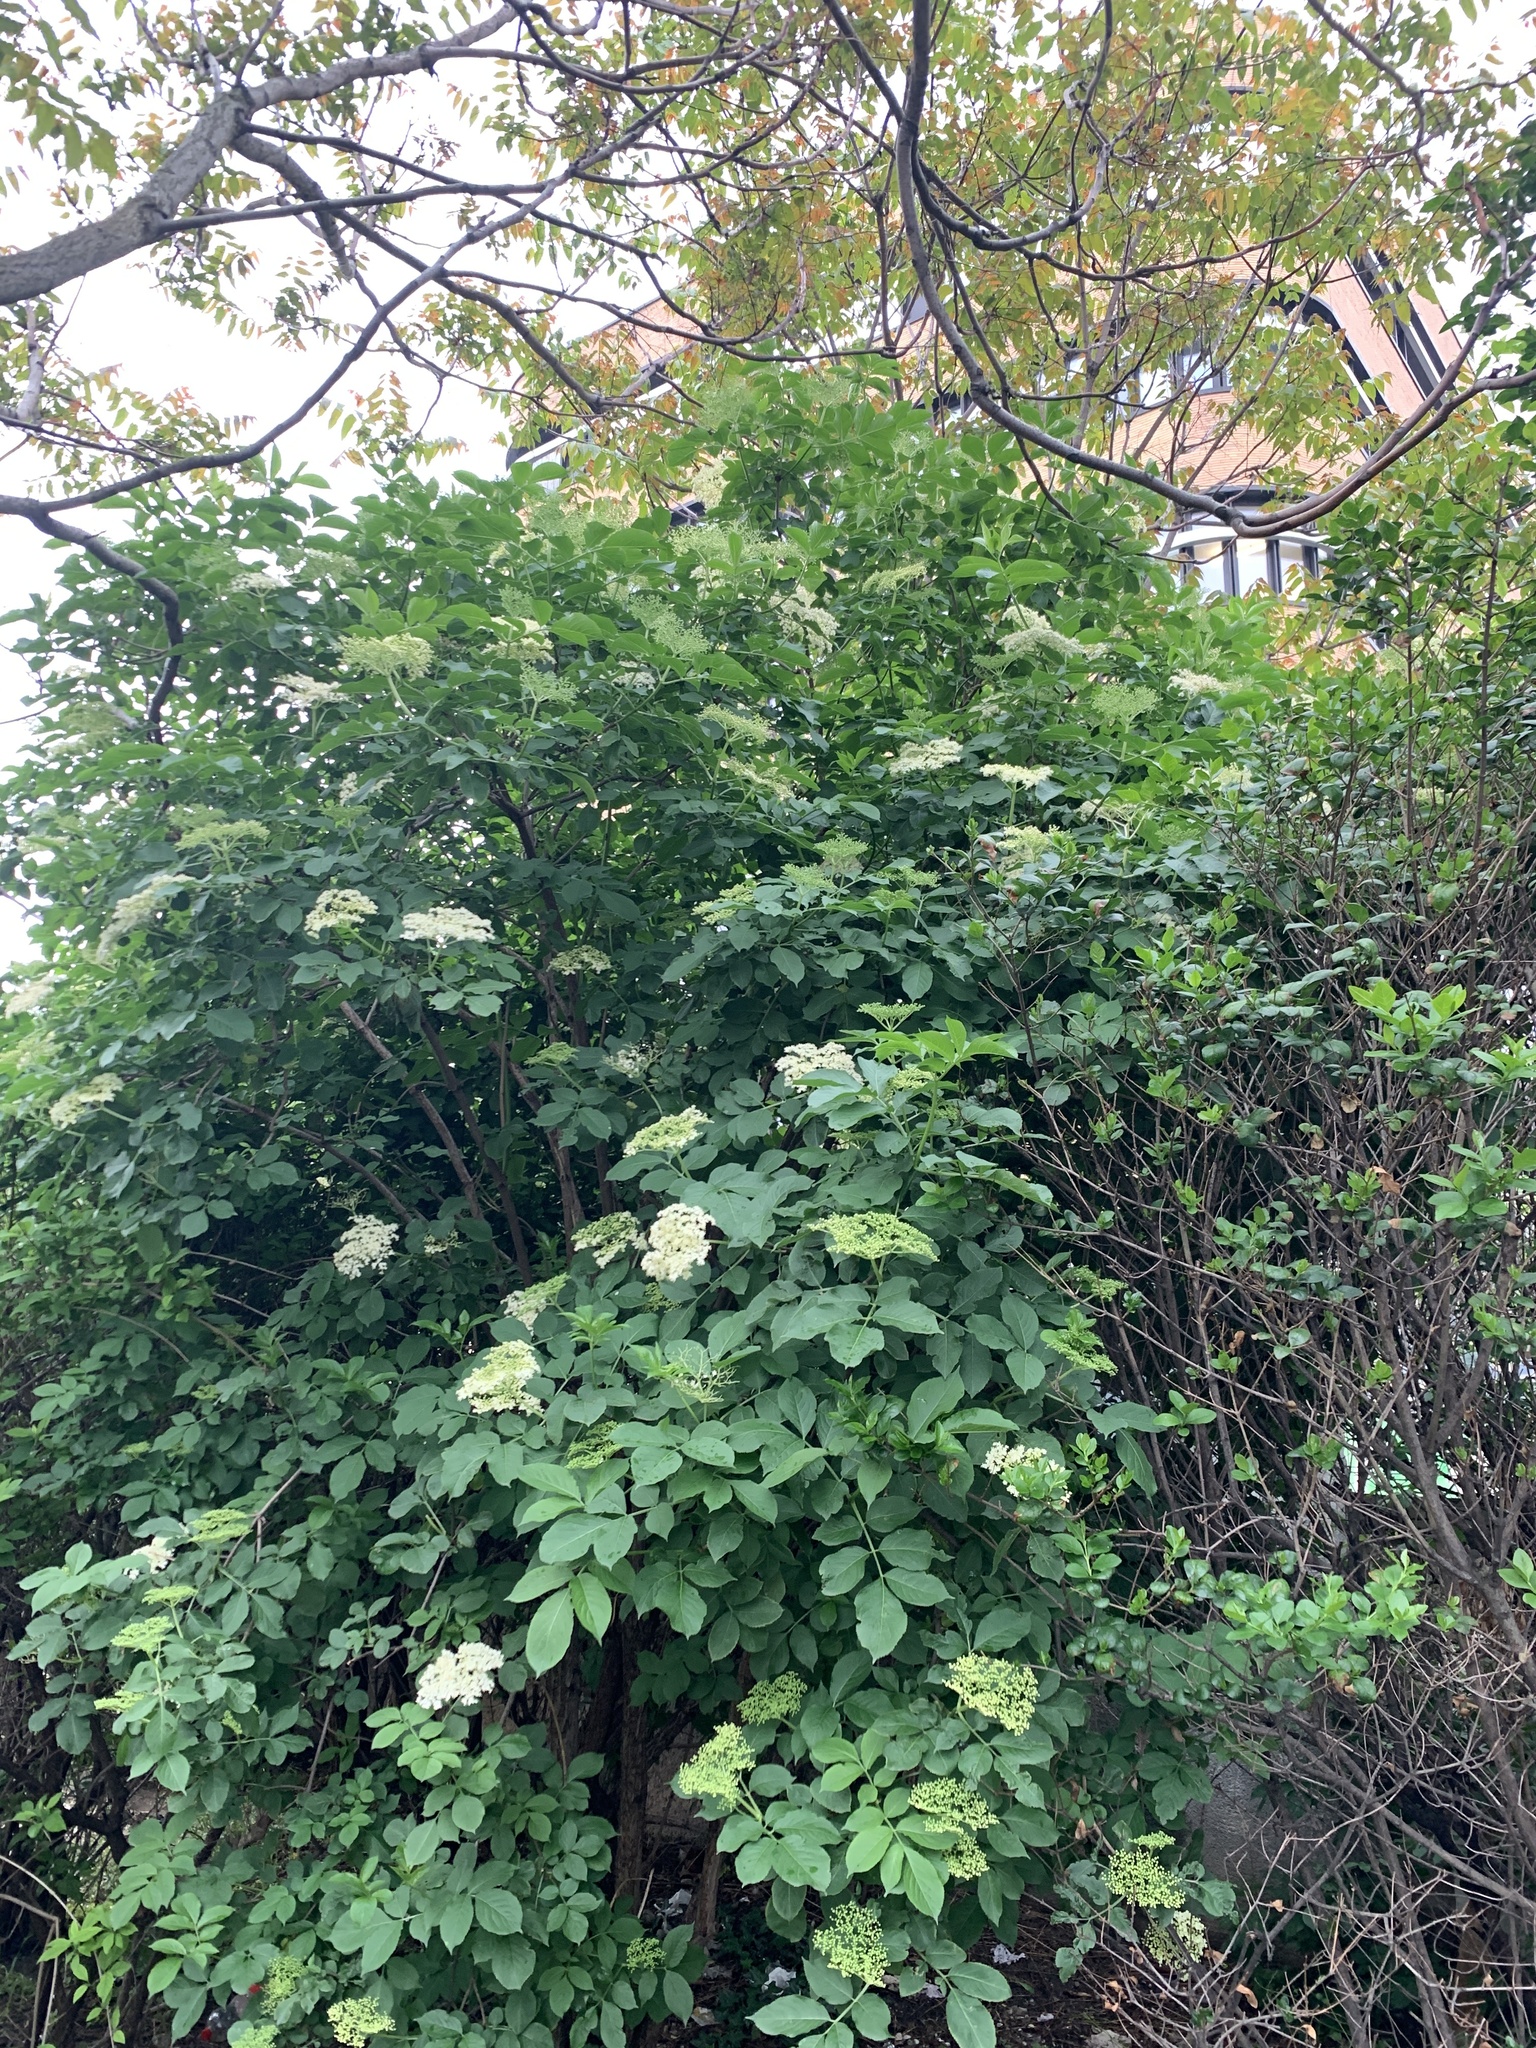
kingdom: Plantae
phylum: Tracheophyta
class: Magnoliopsida
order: Dipsacales
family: Viburnaceae
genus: Sambucus
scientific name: Sambucus nigra
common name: Elder
